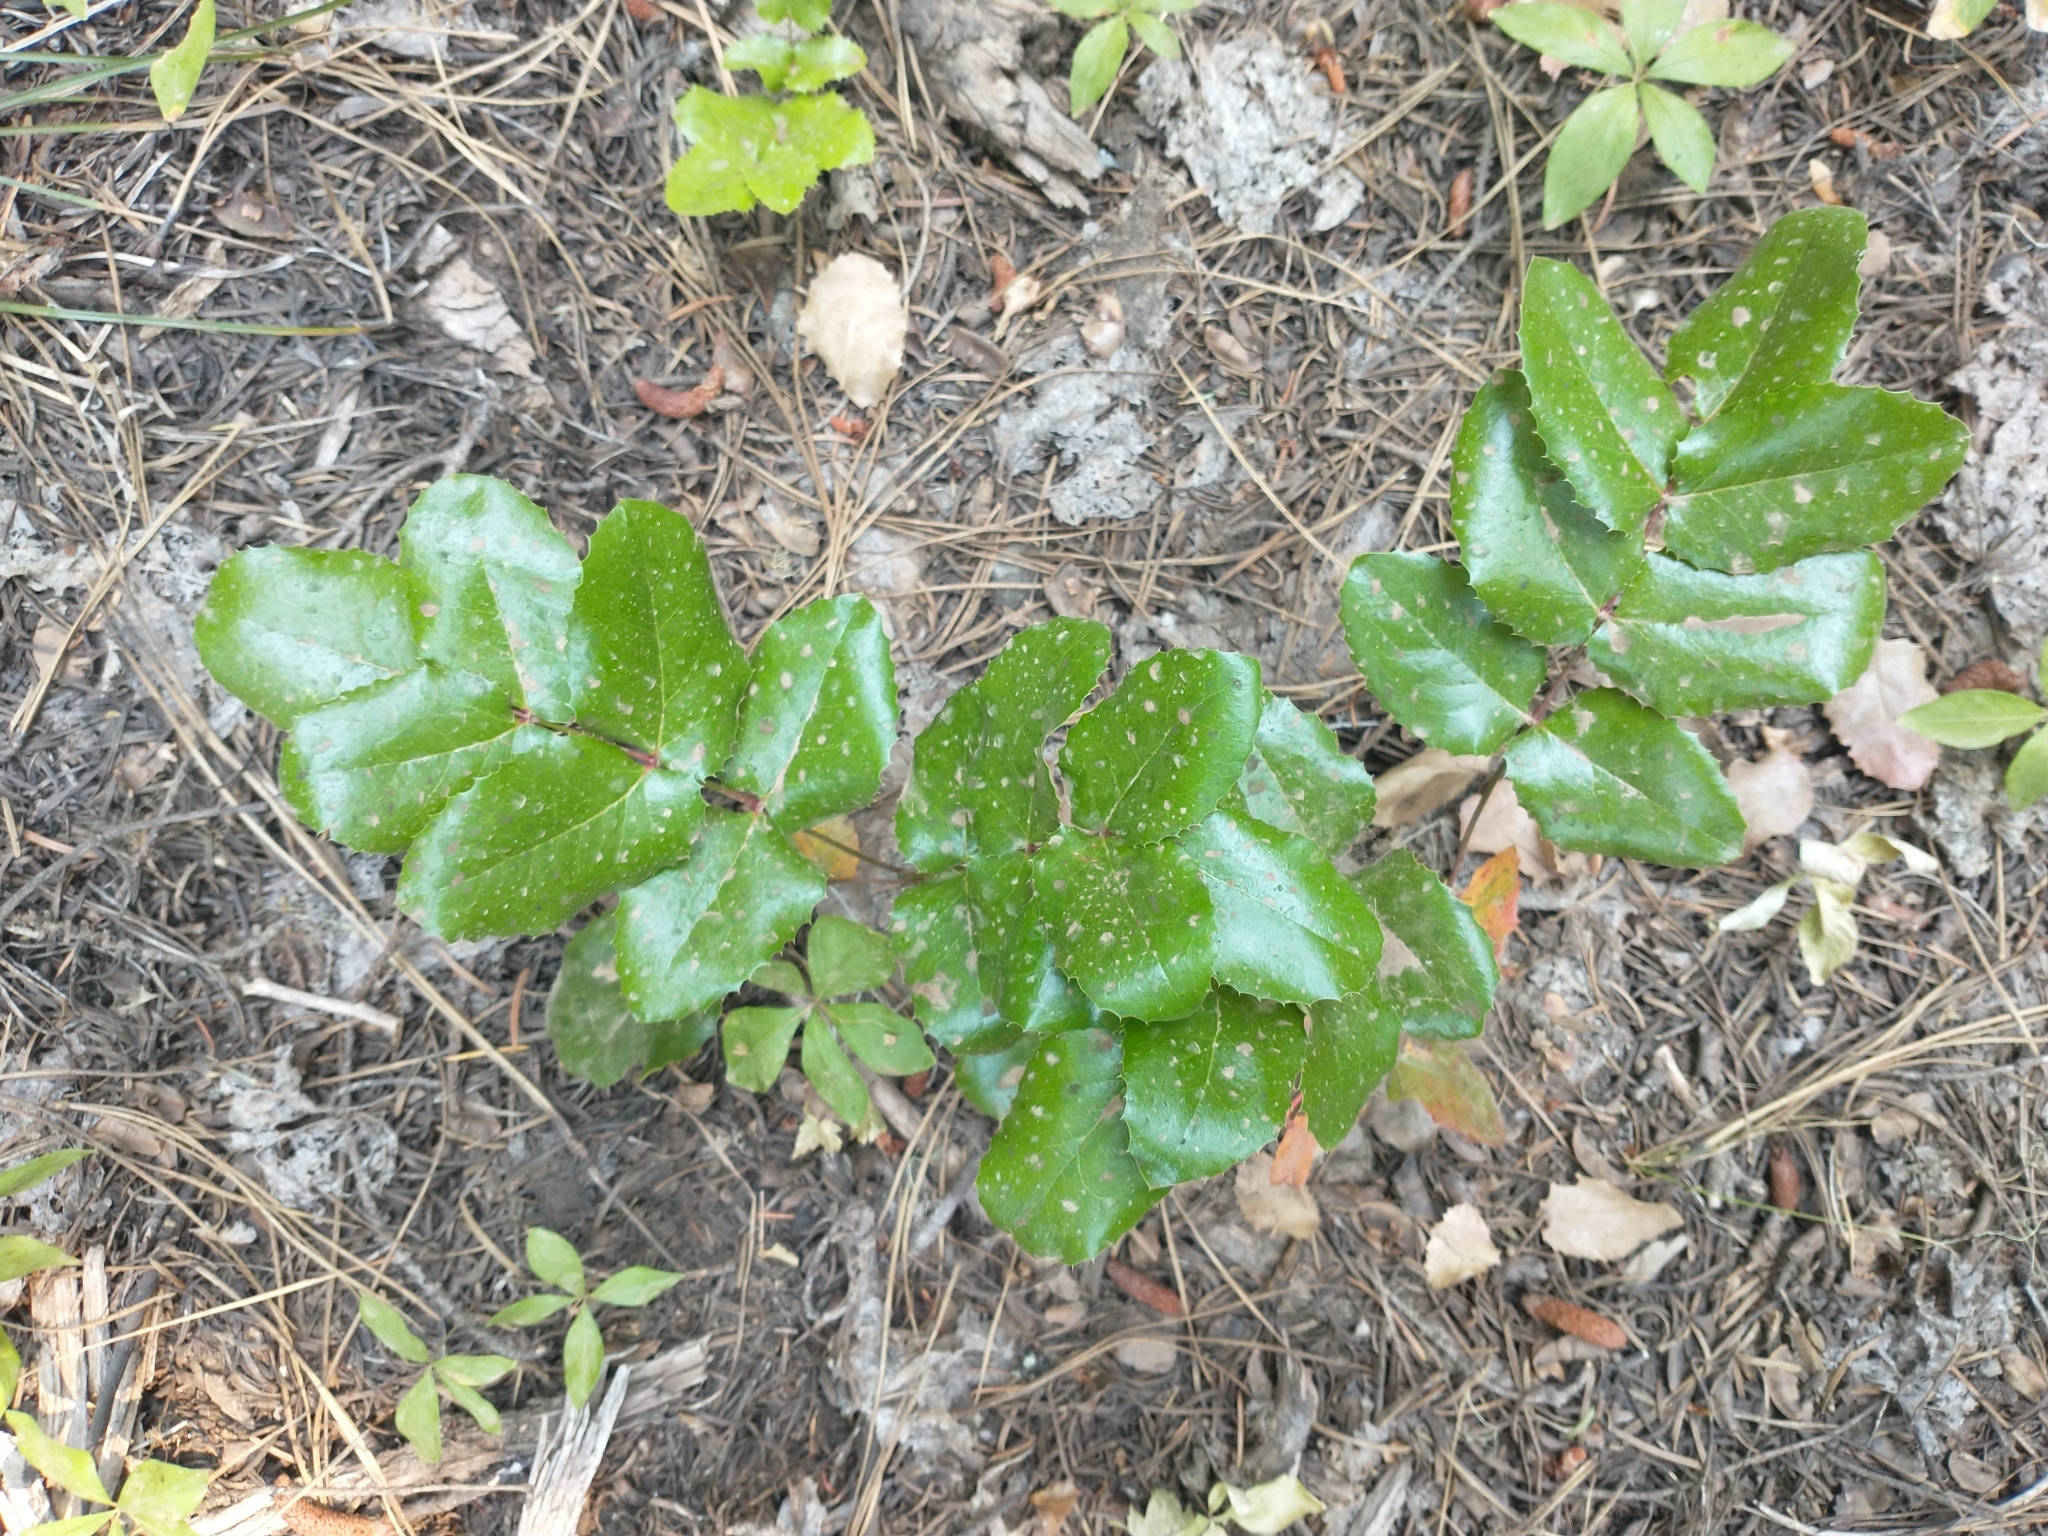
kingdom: Plantae
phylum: Tracheophyta
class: Magnoliopsida
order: Ranunculales
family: Berberidaceae
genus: Mahonia
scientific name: Mahonia aquifolium
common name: Oregon-grape
